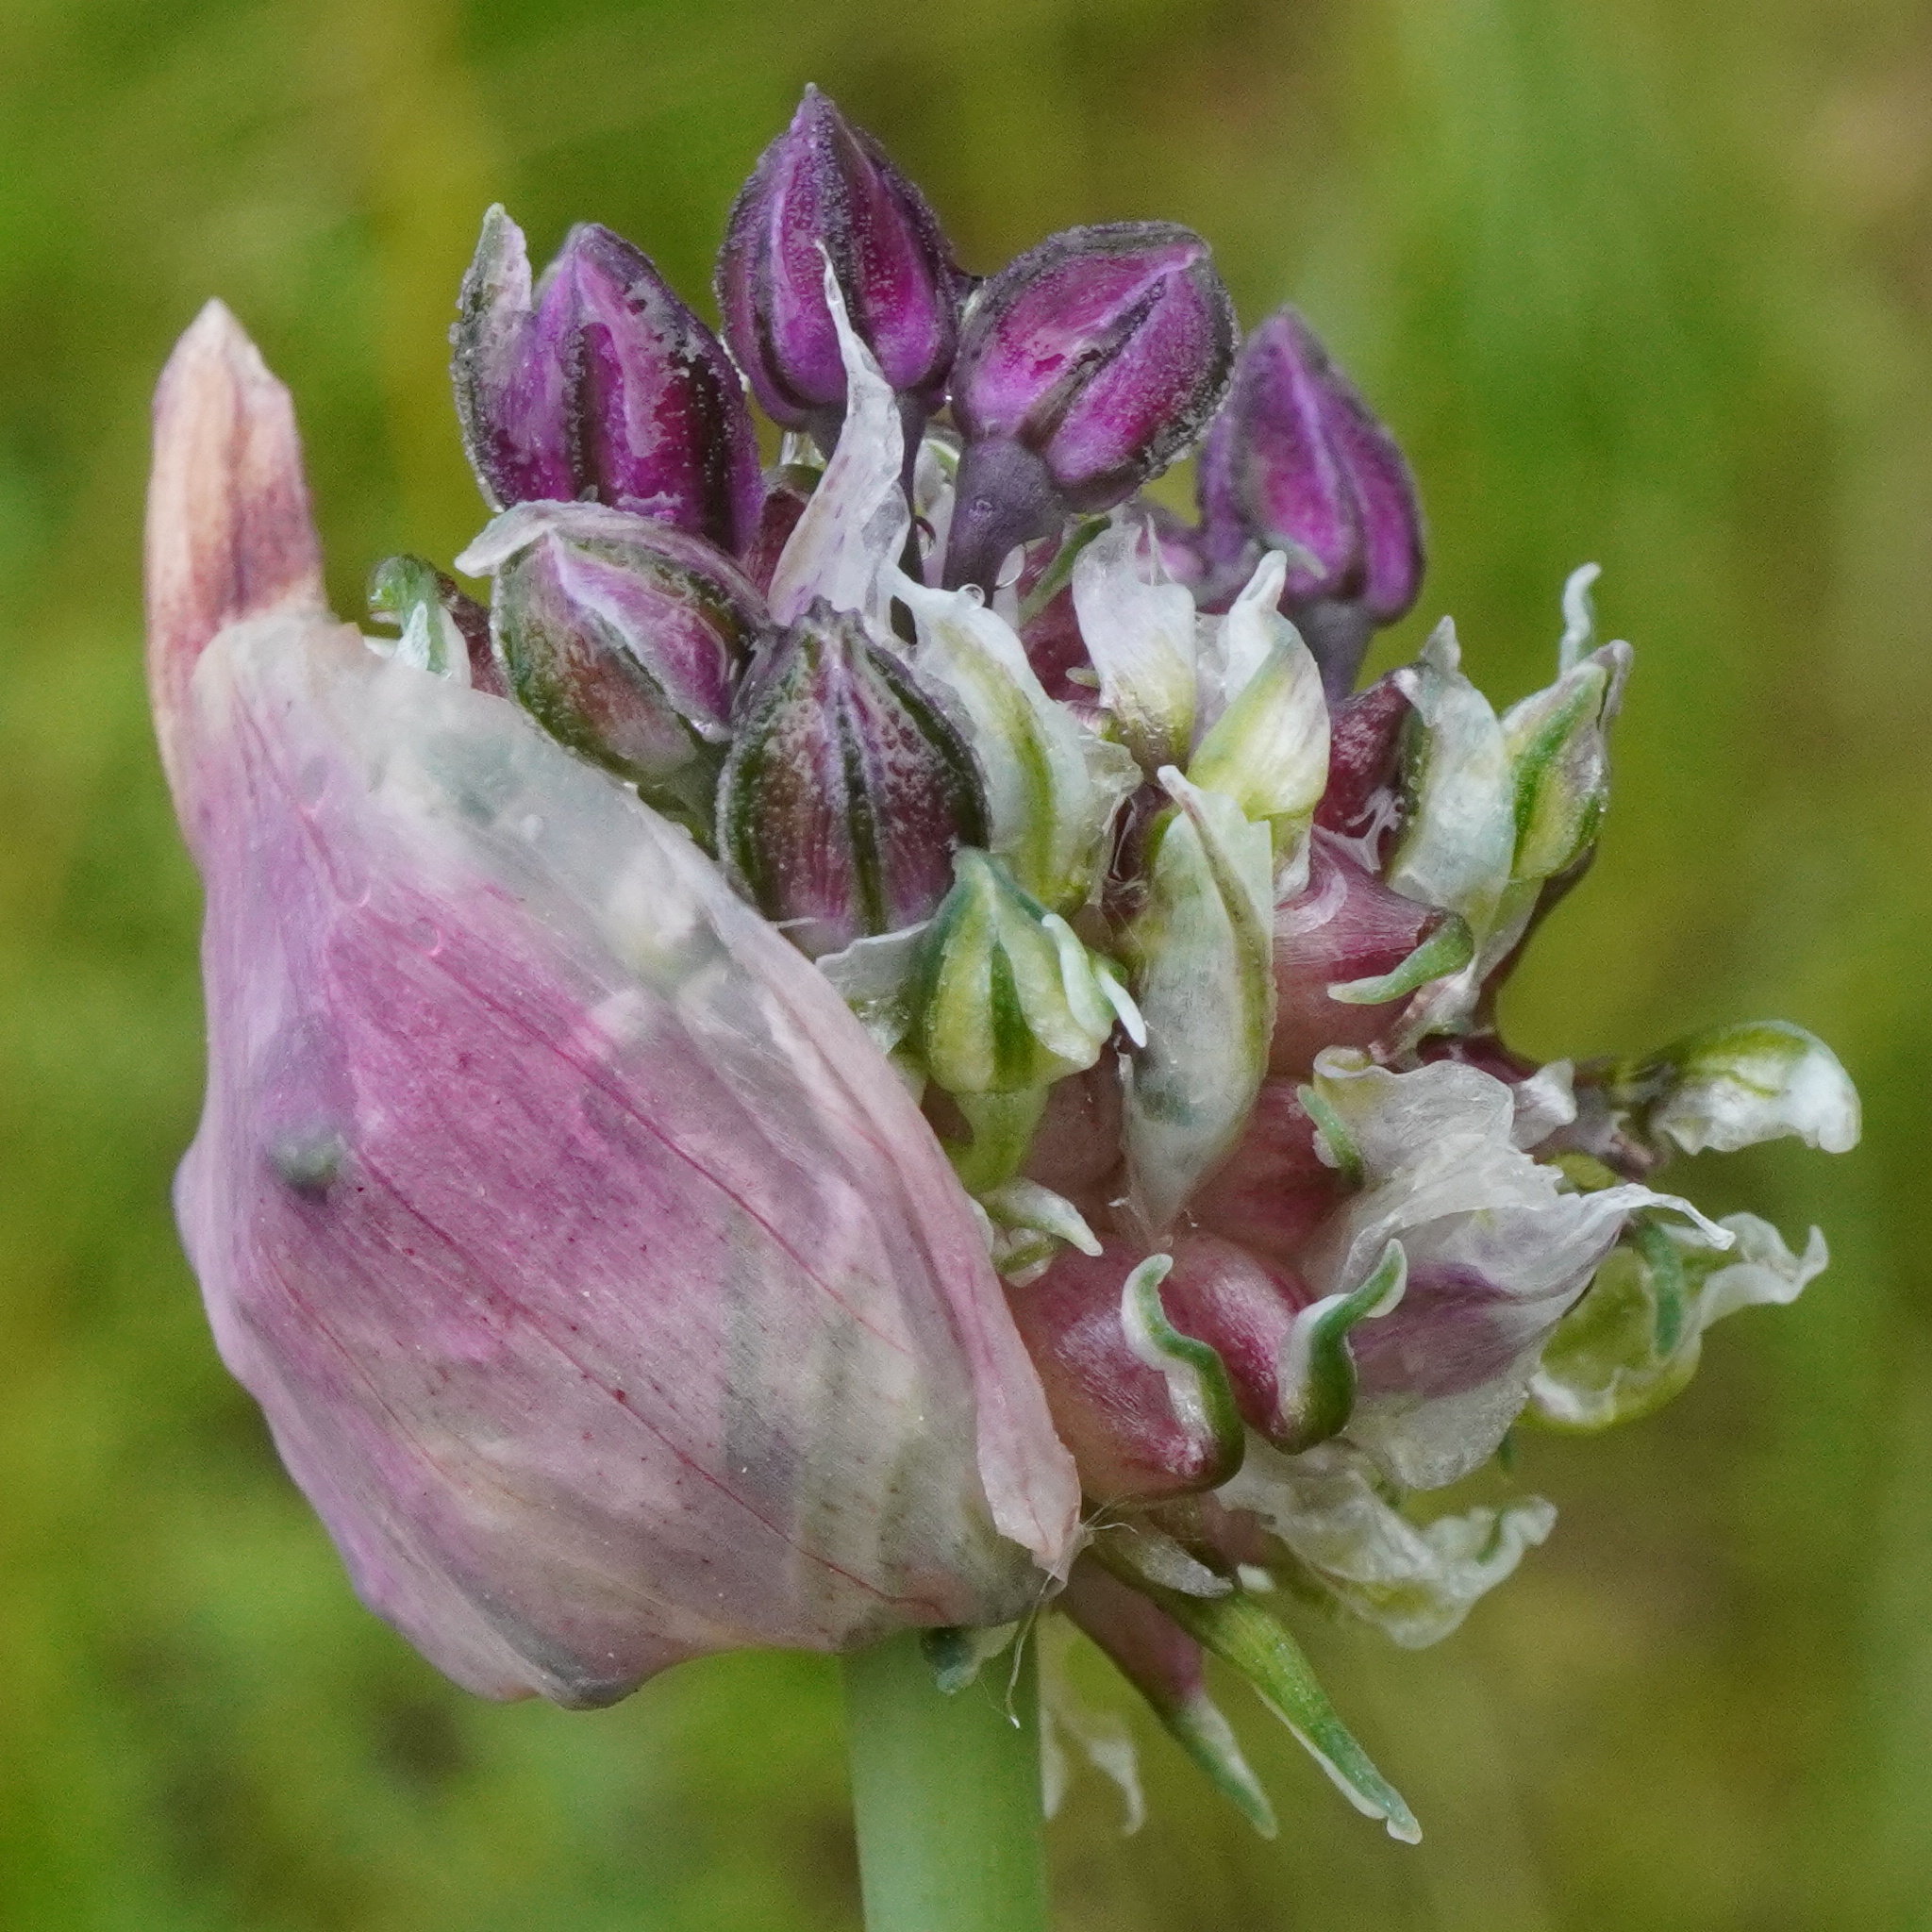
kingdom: Plantae
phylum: Tracheophyta
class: Liliopsida
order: Asparagales
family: Amaryllidaceae
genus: Allium
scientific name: Allium scorodoprasum
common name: Sand leek
